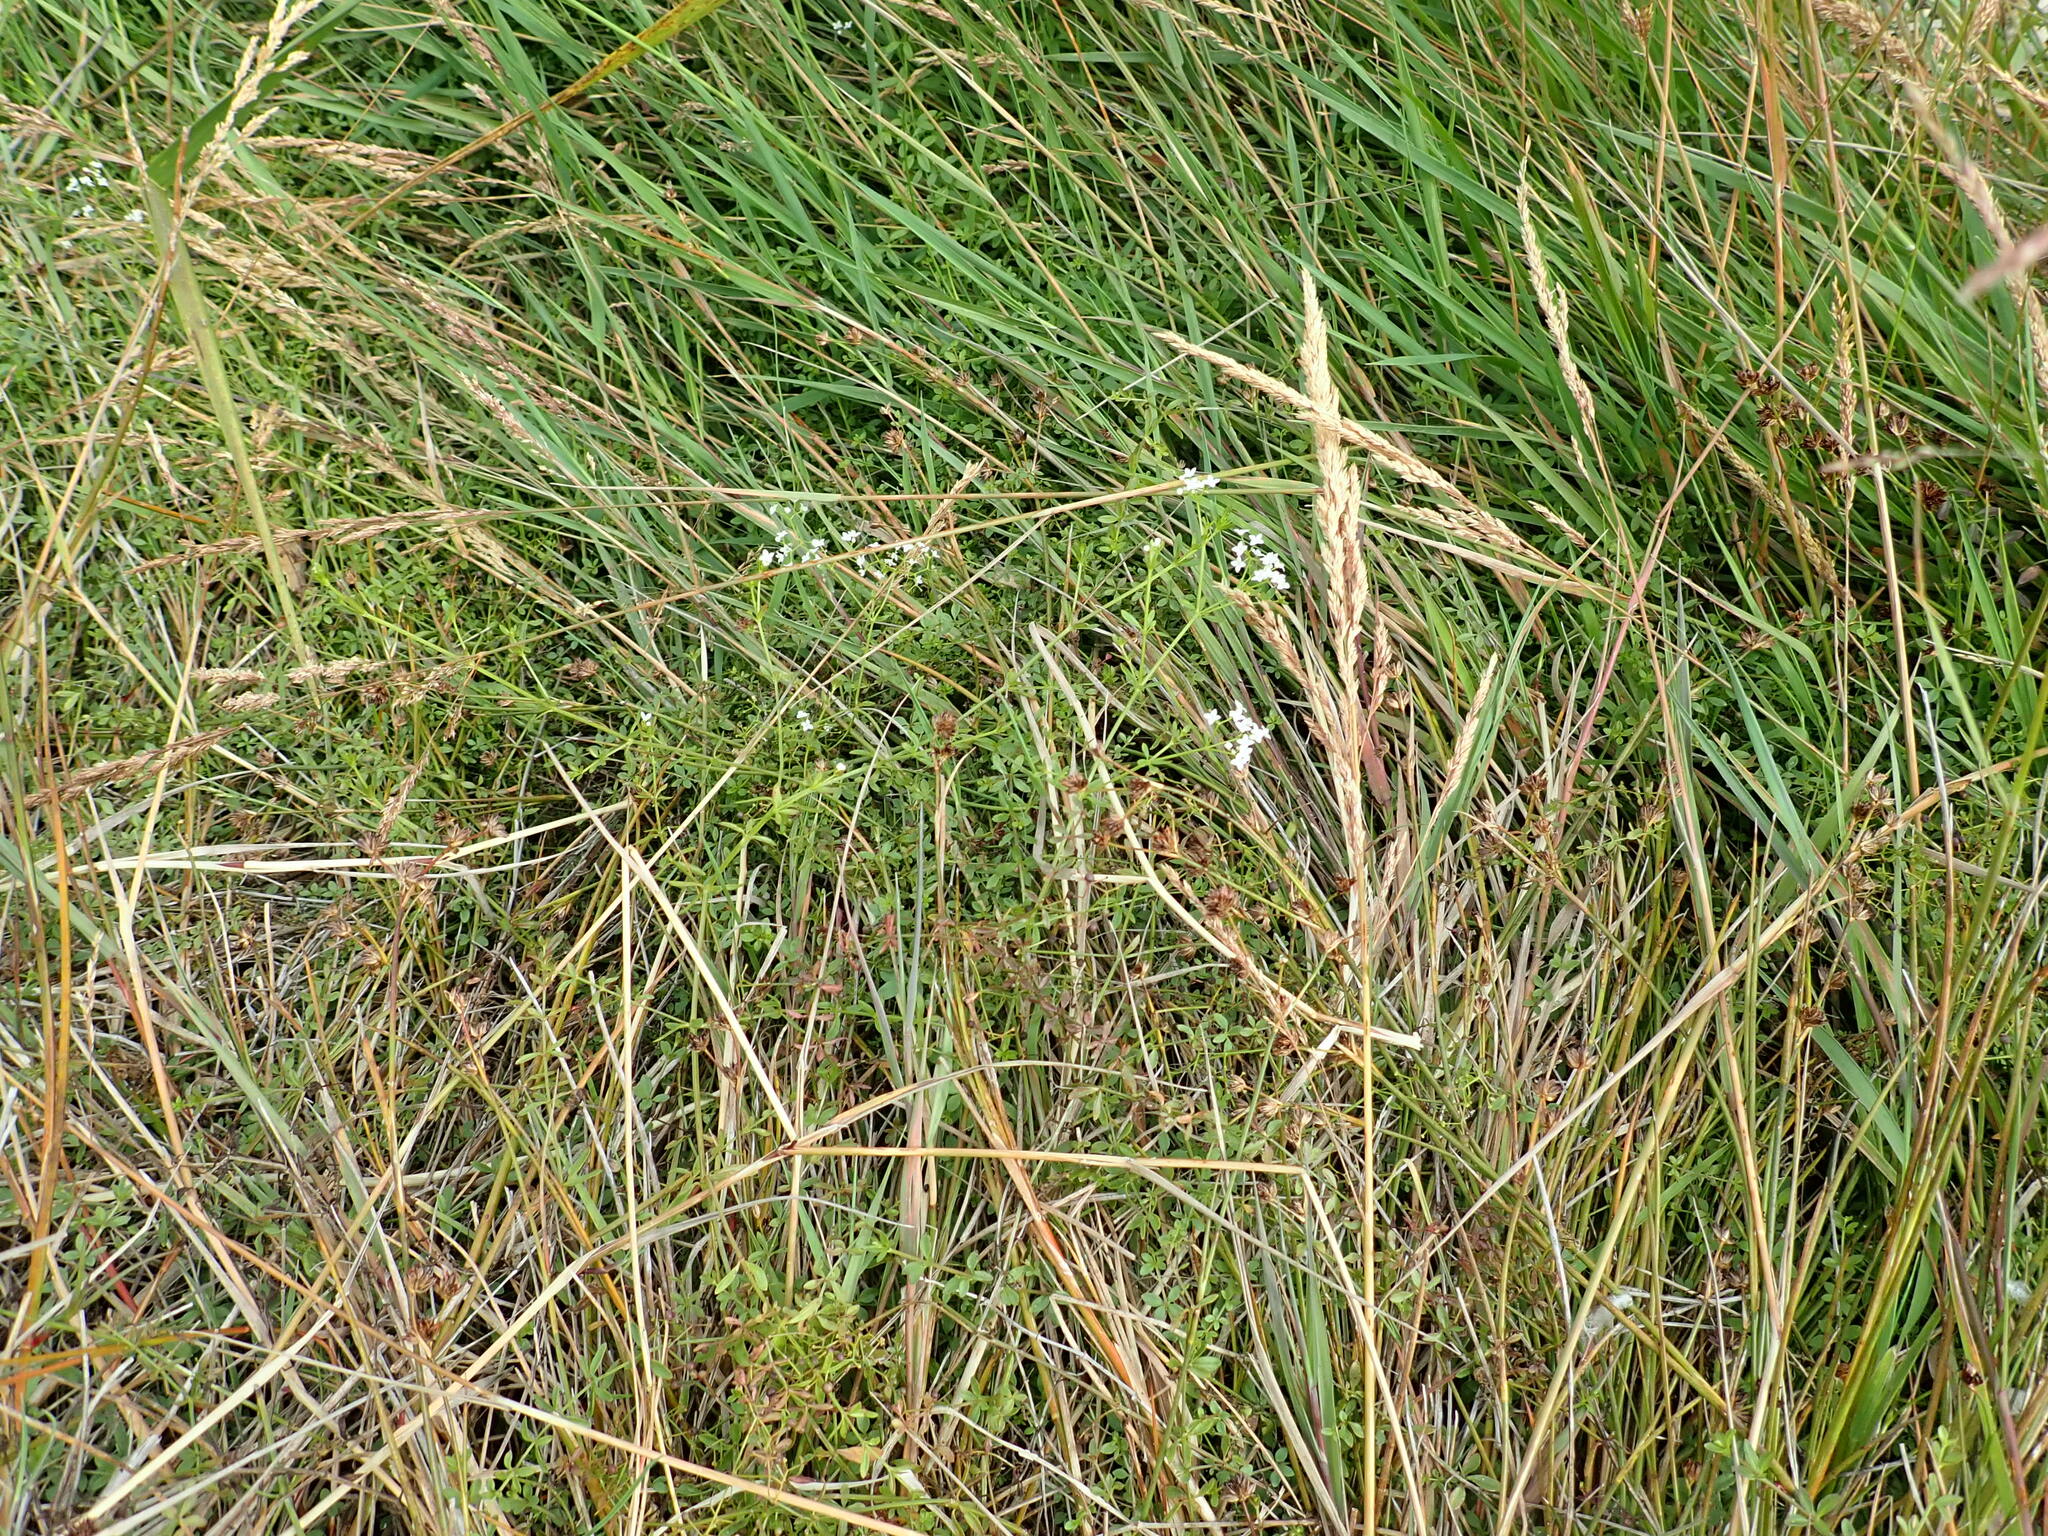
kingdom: Plantae
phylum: Tracheophyta
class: Magnoliopsida
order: Gentianales
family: Rubiaceae
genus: Galium
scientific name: Galium palustre
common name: Common marsh-bedstraw
